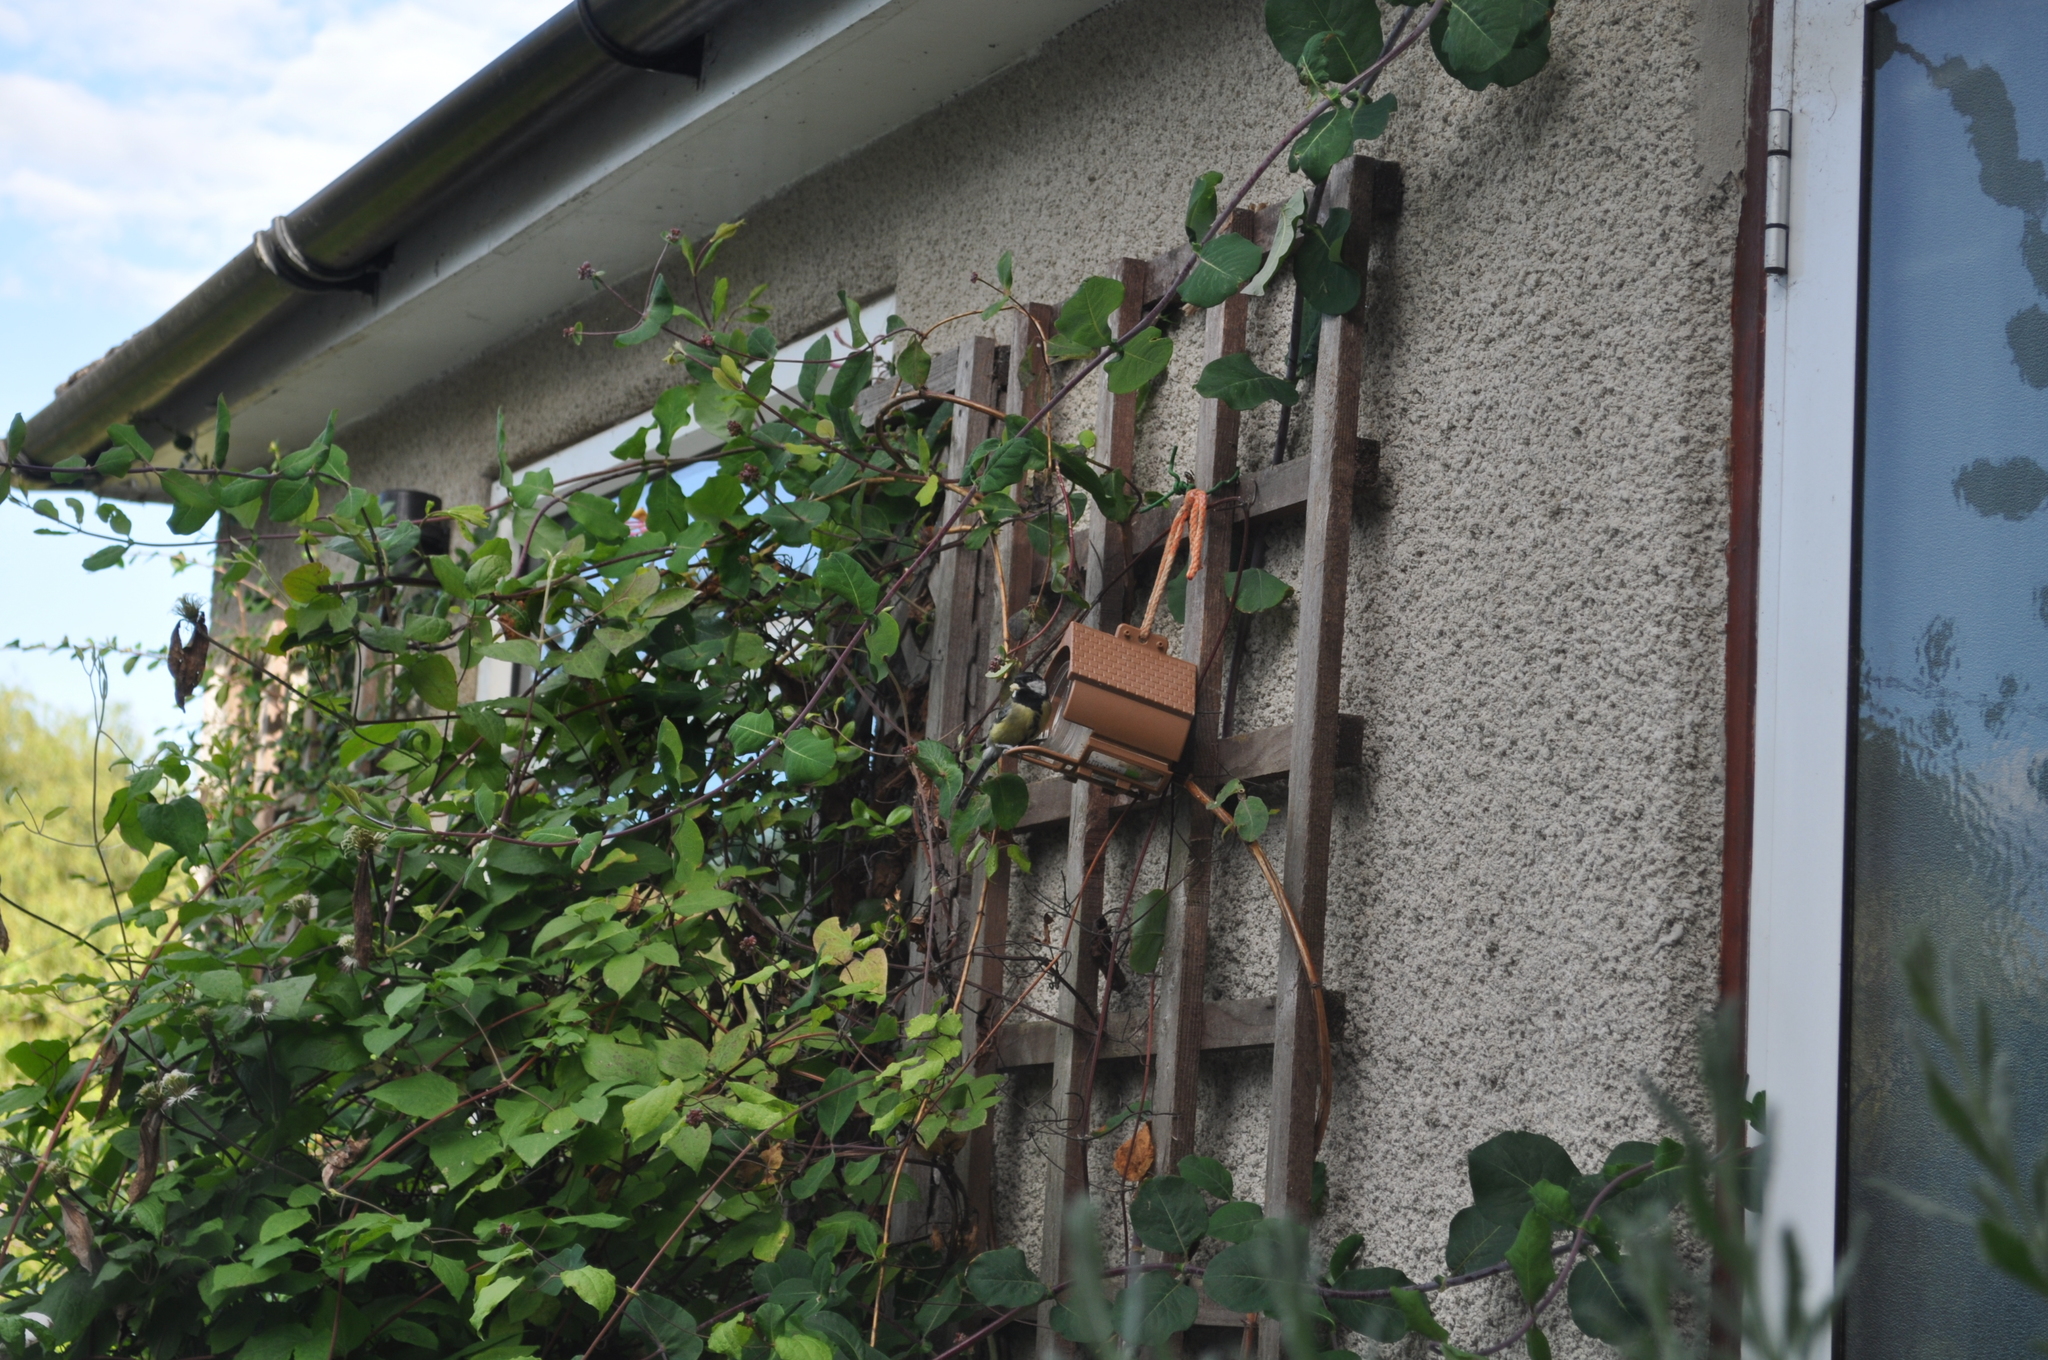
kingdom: Animalia
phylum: Chordata
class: Aves
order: Passeriformes
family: Paridae
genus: Parus
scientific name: Parus major
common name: Great tit
